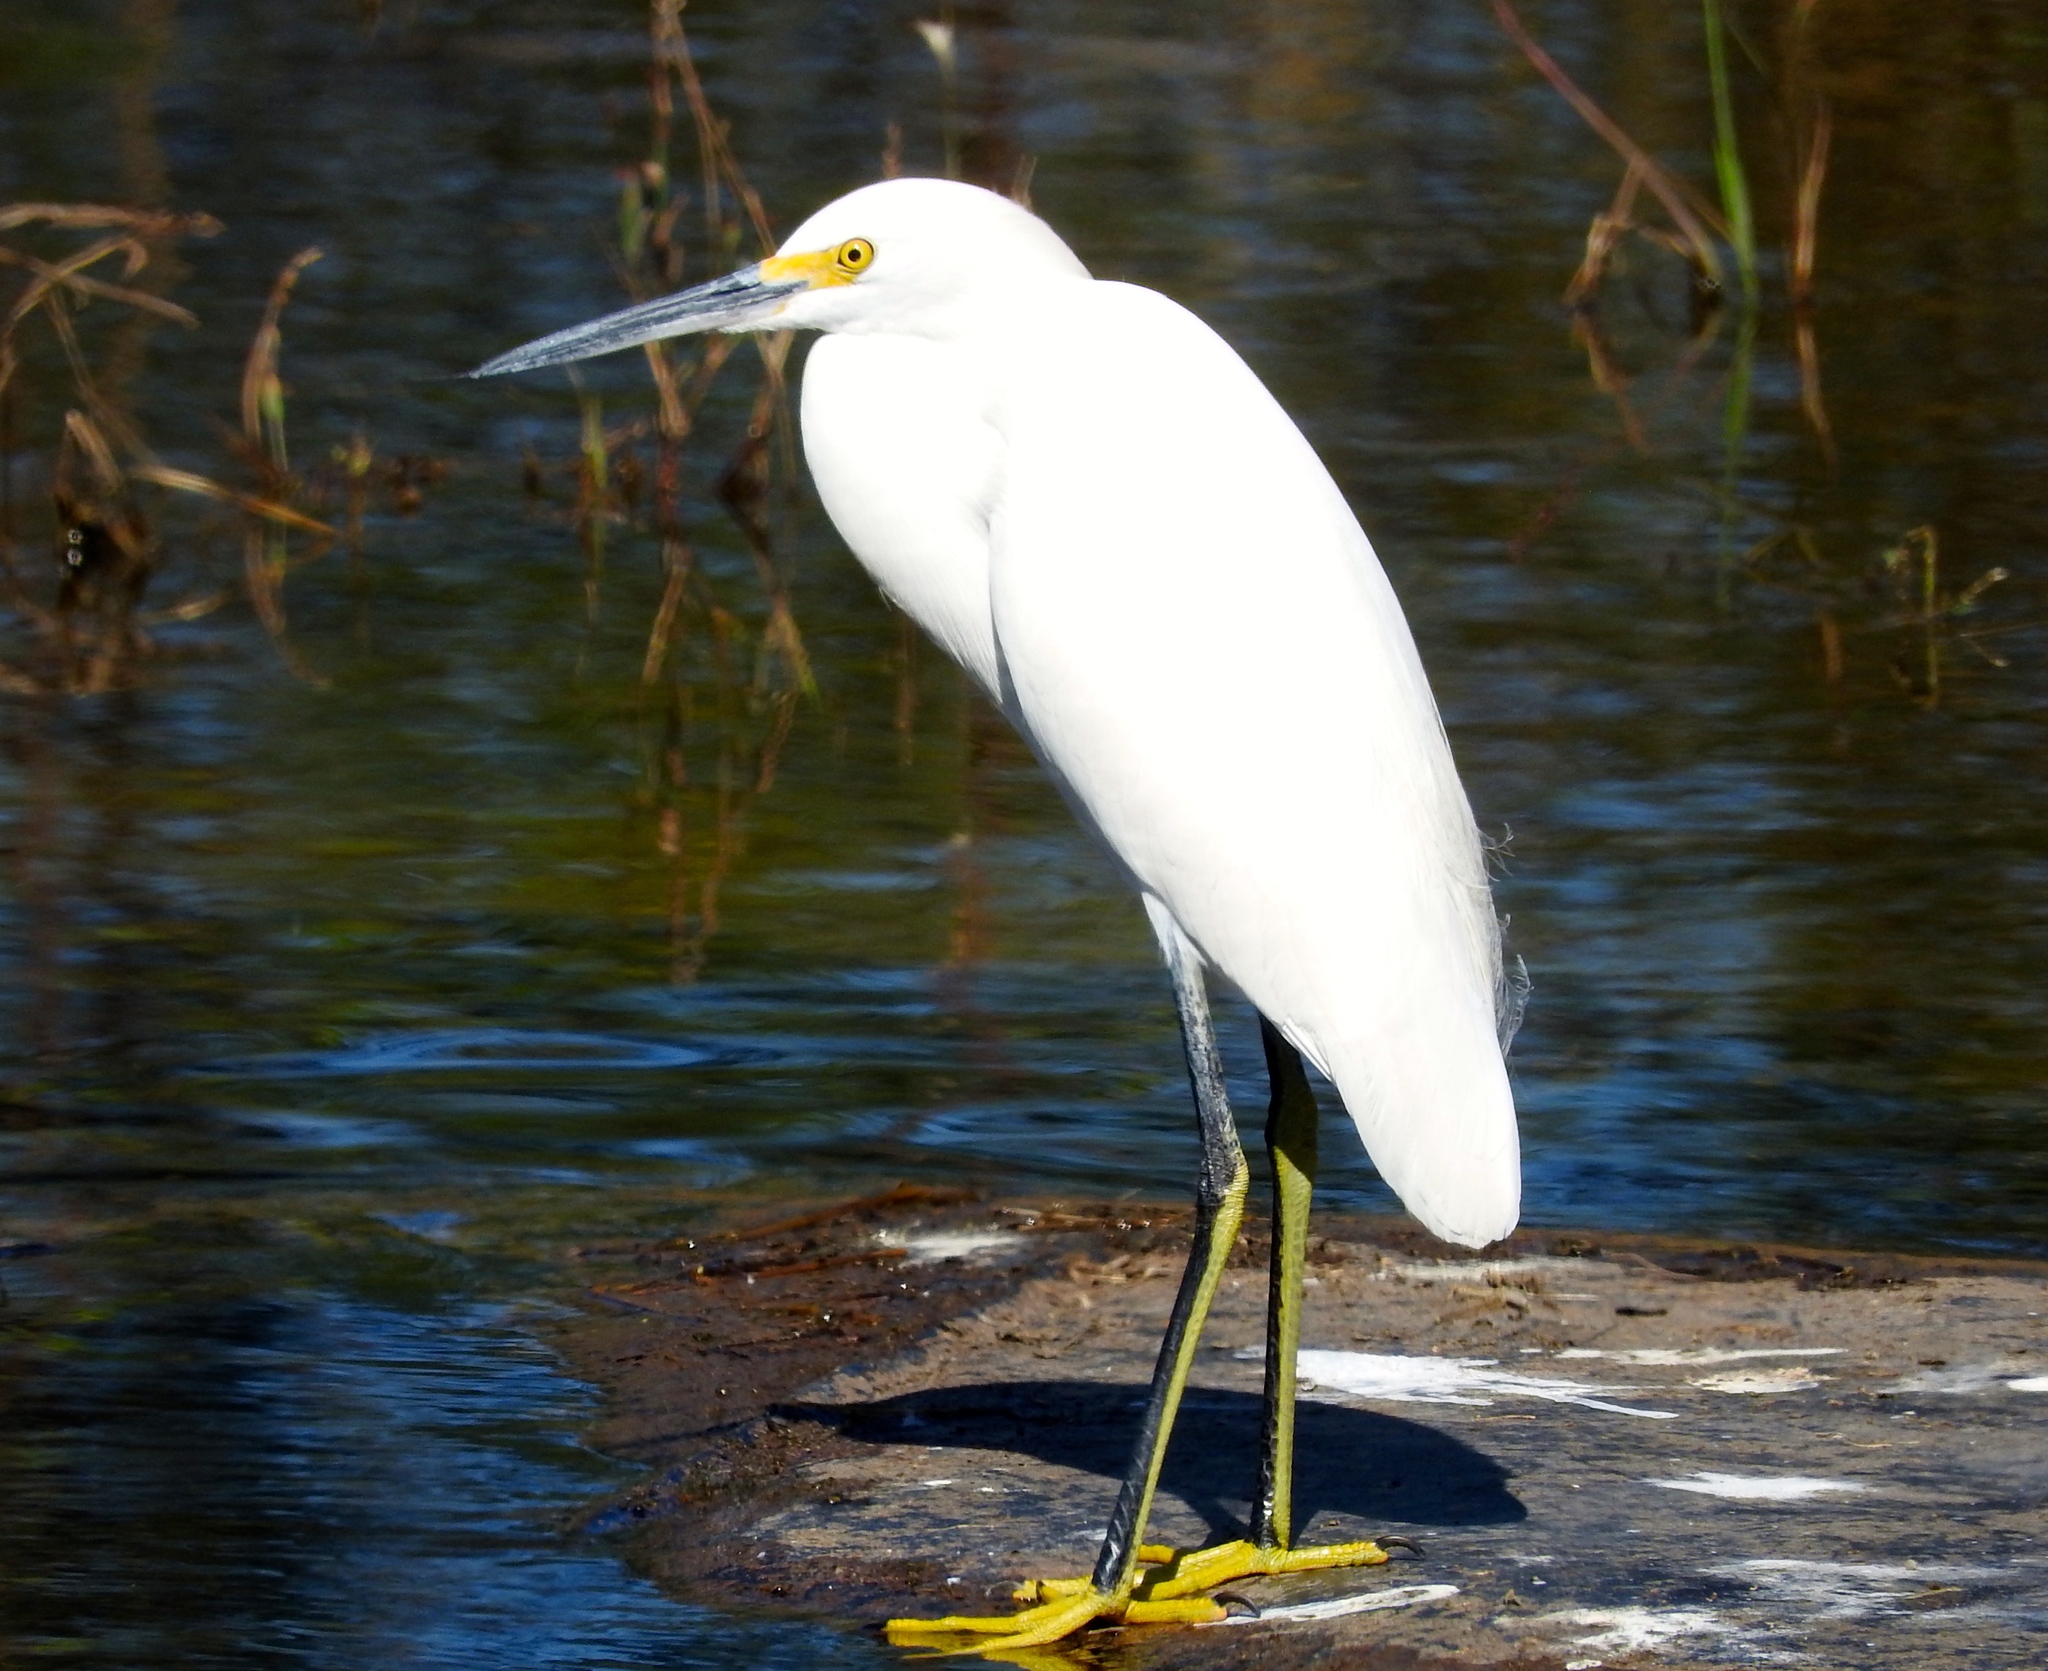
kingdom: Animalia
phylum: Chordata
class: Aves
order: Pelecaniformes
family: Ardeidae
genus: Egretta
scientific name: Egretta thula
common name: Snowy egret
